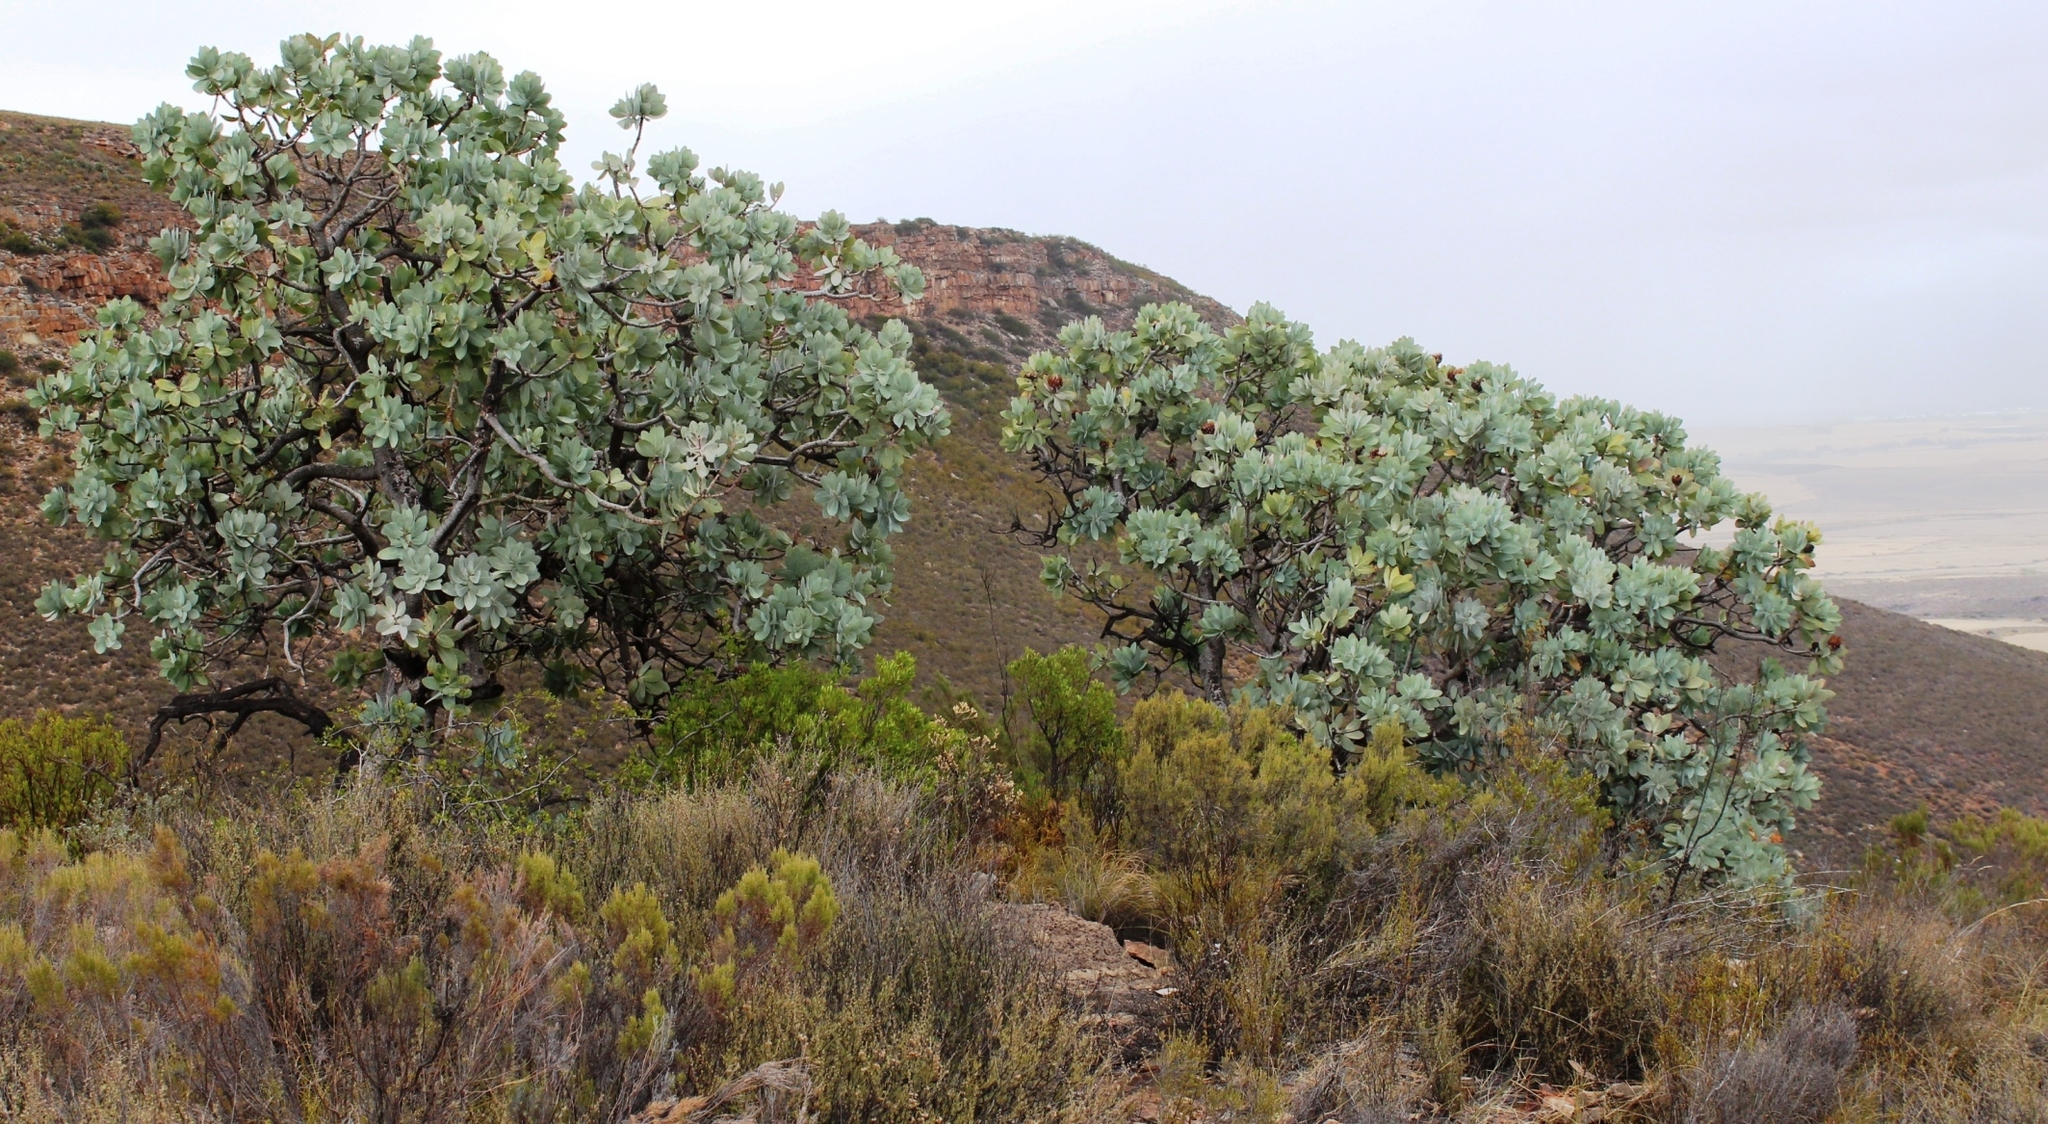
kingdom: Plantae
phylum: Tracheophyta
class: Magnoliopsida
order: Proteales
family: Proteaceae
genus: Protea
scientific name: Protea nitida
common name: Tree protea
